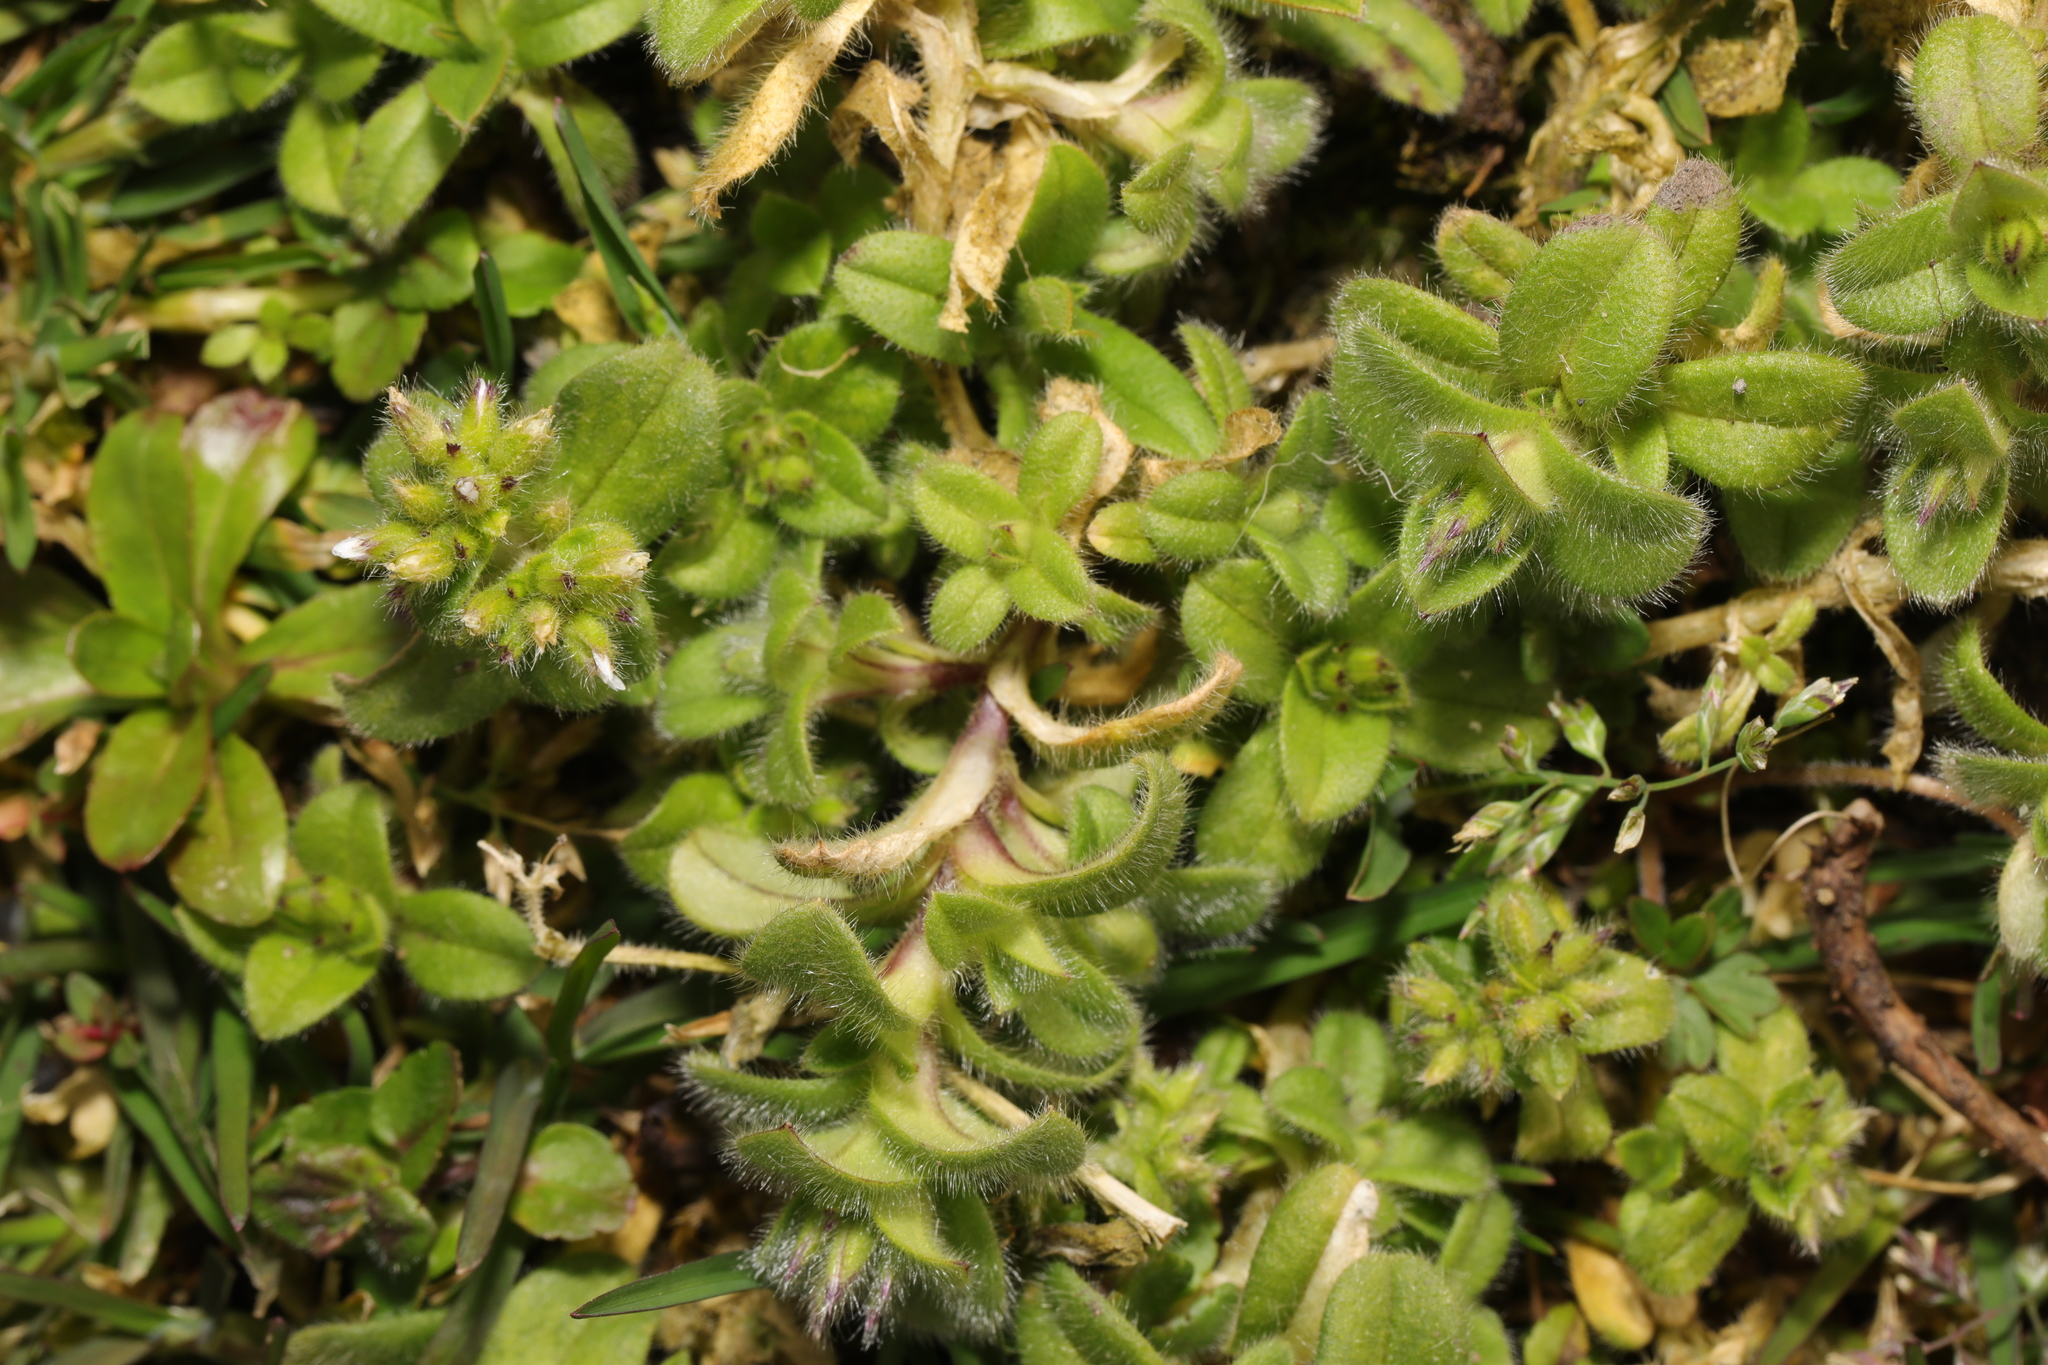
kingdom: Plantae
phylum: Tracheophyta
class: Magnoliopsida
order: Caryophyllales
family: Caryophyllaceae
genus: Cerastium
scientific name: Cerastium glomeratum
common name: Sticky chickweed
